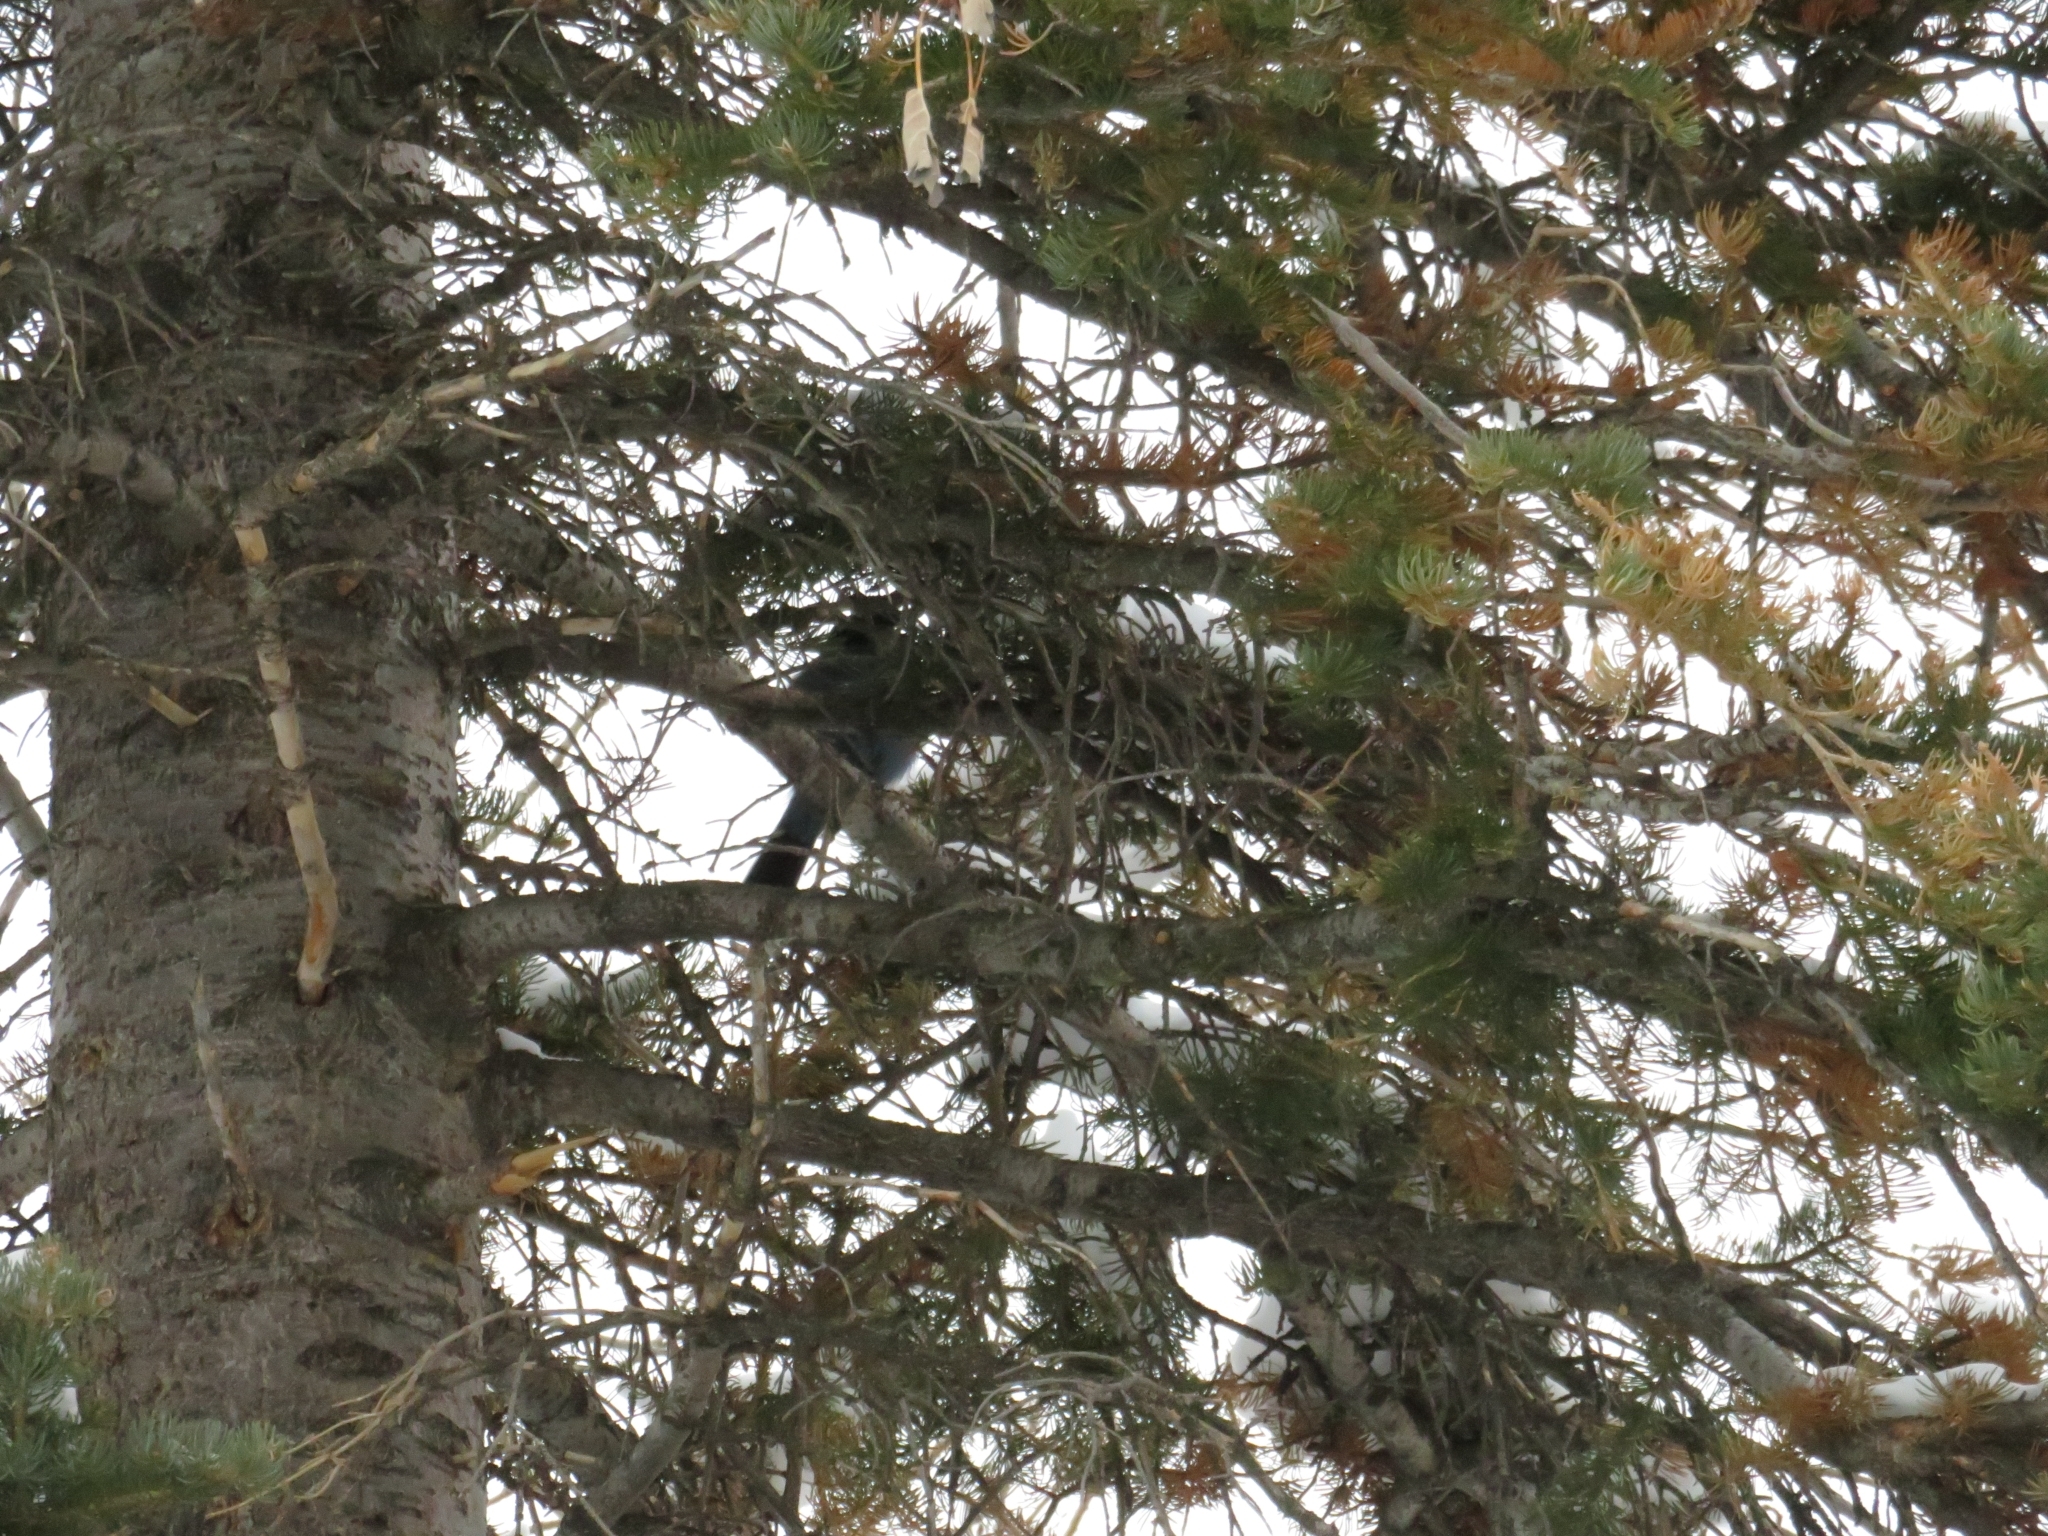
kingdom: Animalia
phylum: Chordata
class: Aves
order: Passeriformes
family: Corvidae
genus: Cyanocitta
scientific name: Cyanocitta stelleri
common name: Steller's jay
